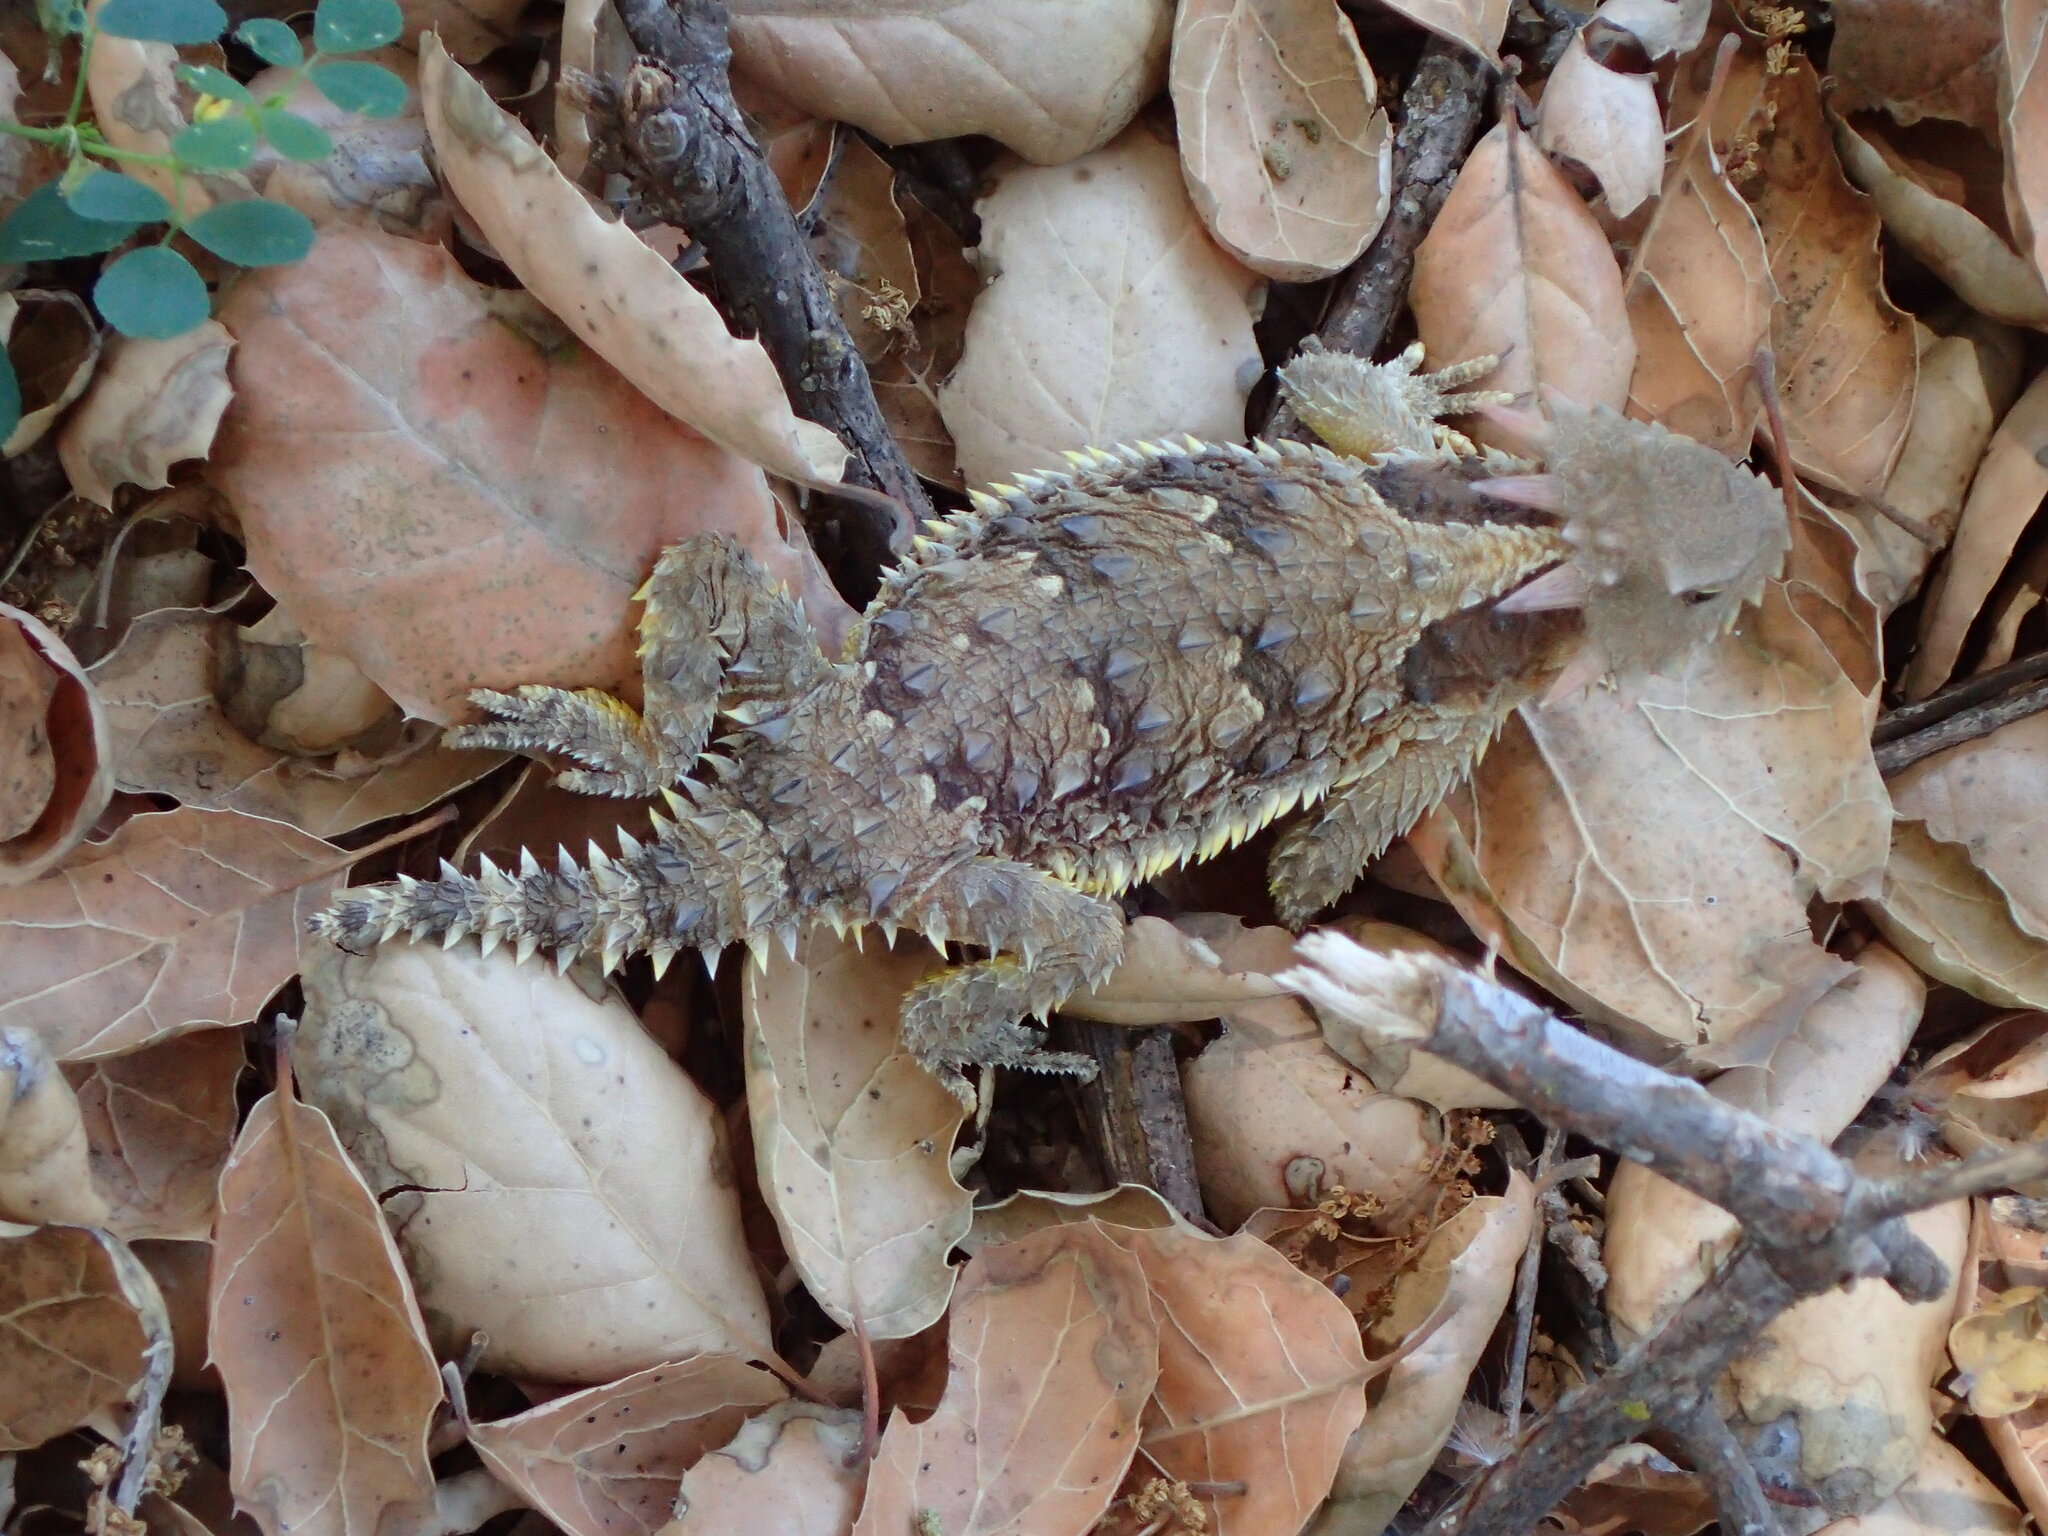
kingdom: Animalia
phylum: Chordata
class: Squamata
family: Phrynosomatidae
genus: Phrynosoma
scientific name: Phrynosoma blainvillii
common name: San diego horned lizard
